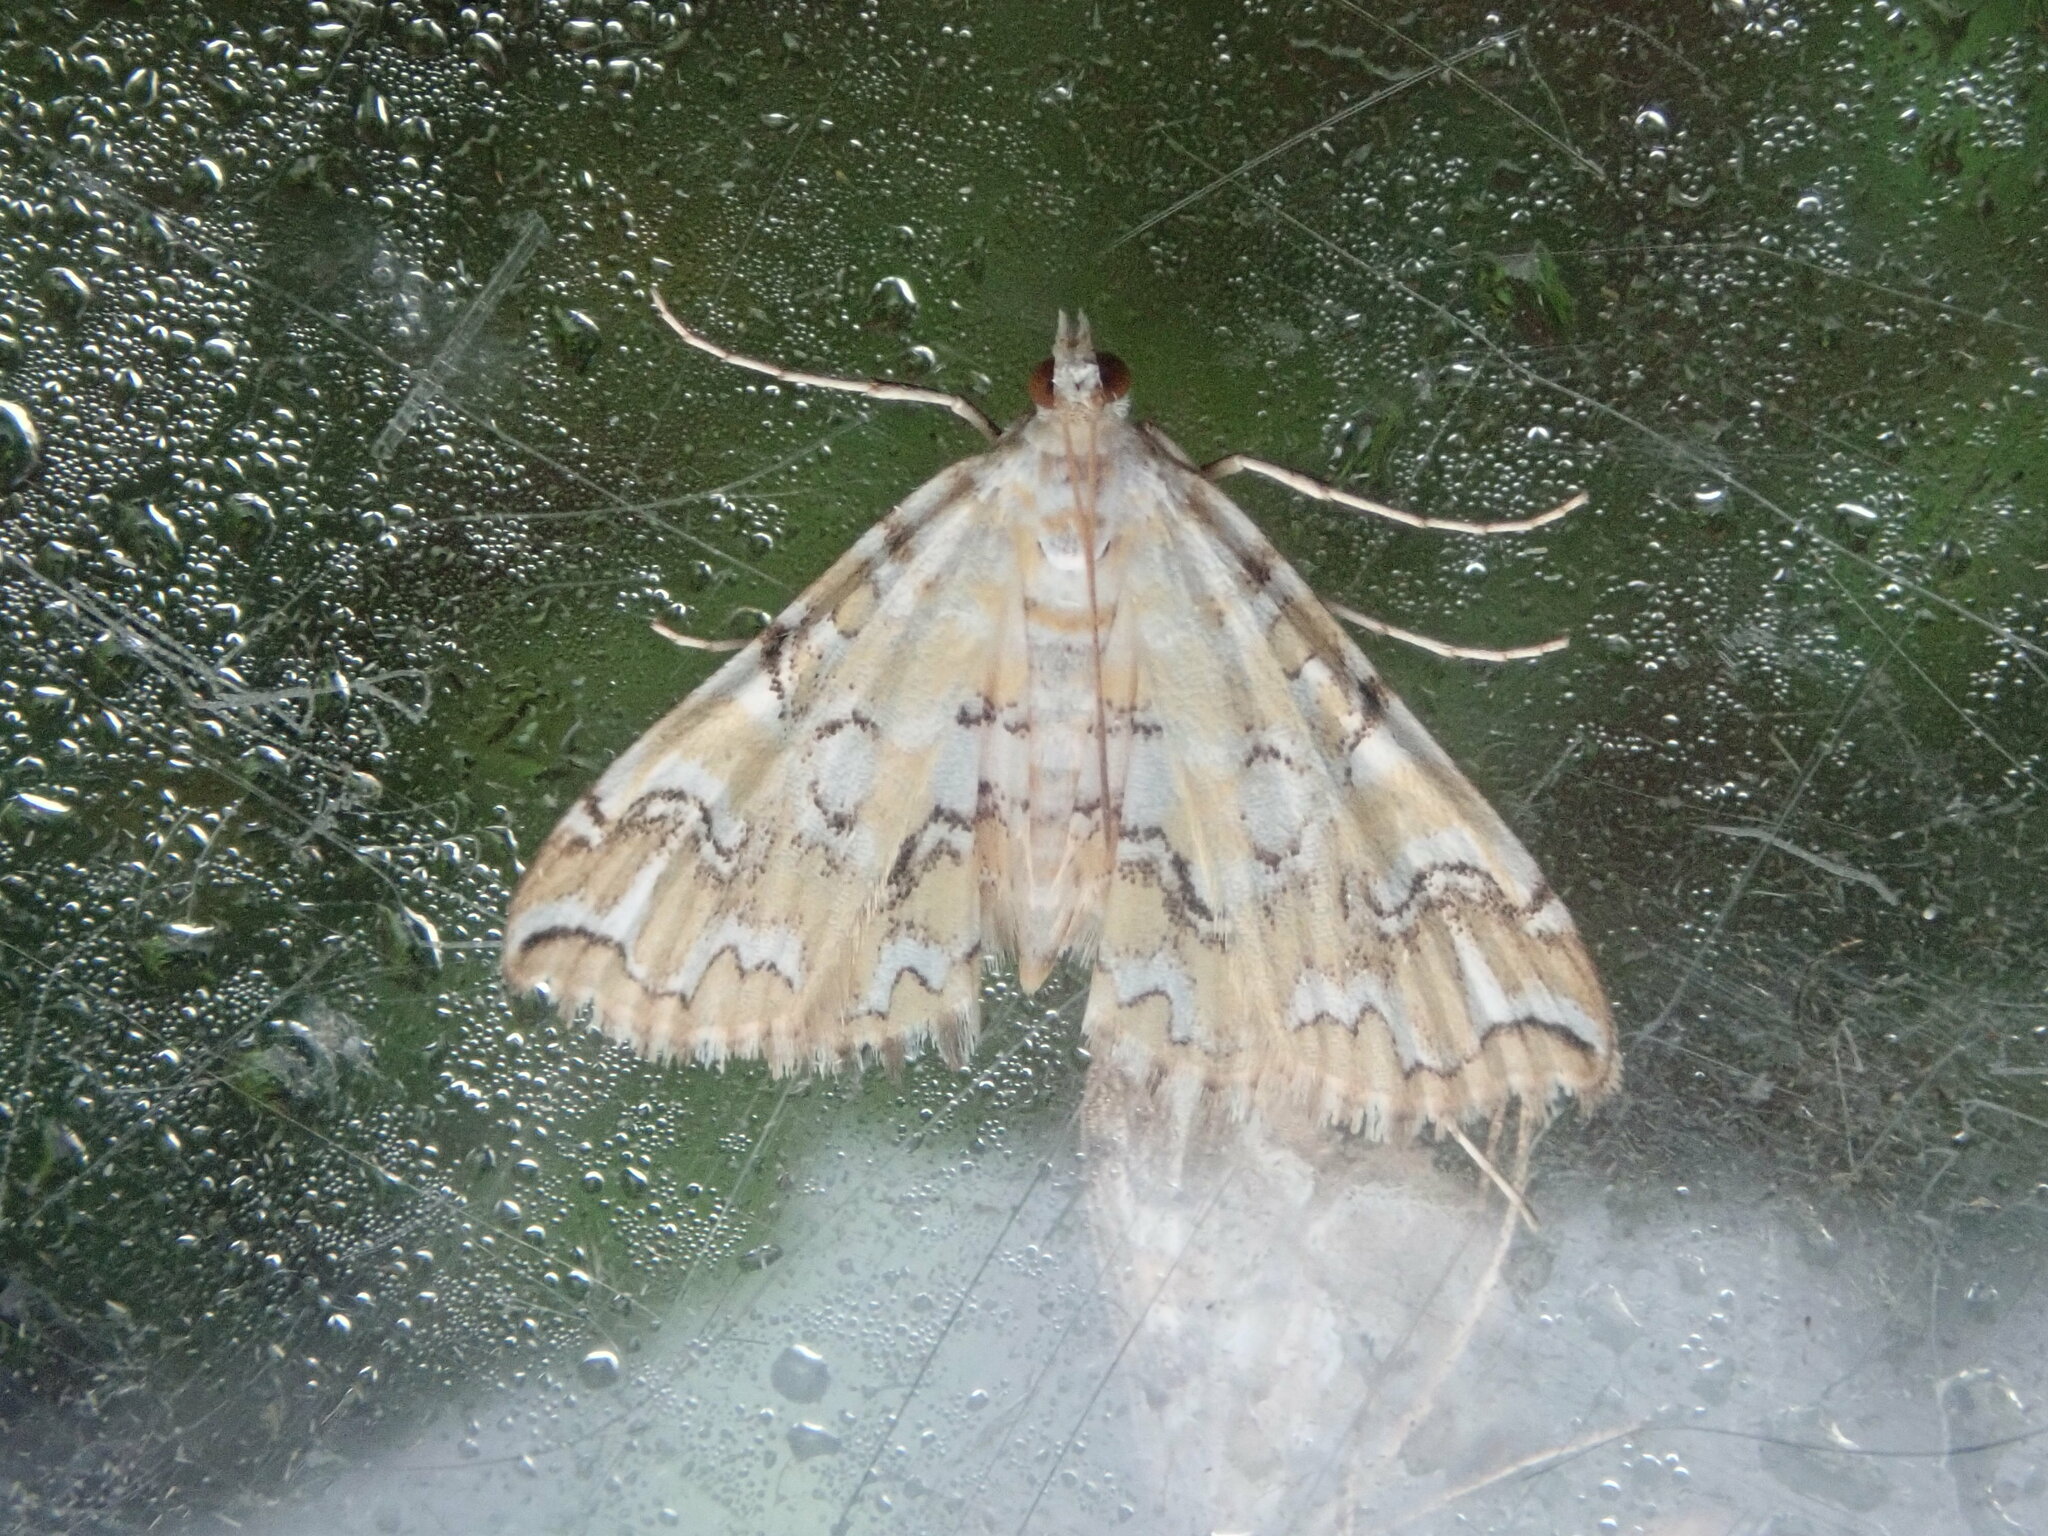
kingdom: Animalia
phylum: Arthropoda
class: Insecta
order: Lepidoptera
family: Crambidae
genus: Elophila
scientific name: Elophila icciusalis
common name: Pondside pyralid moth
